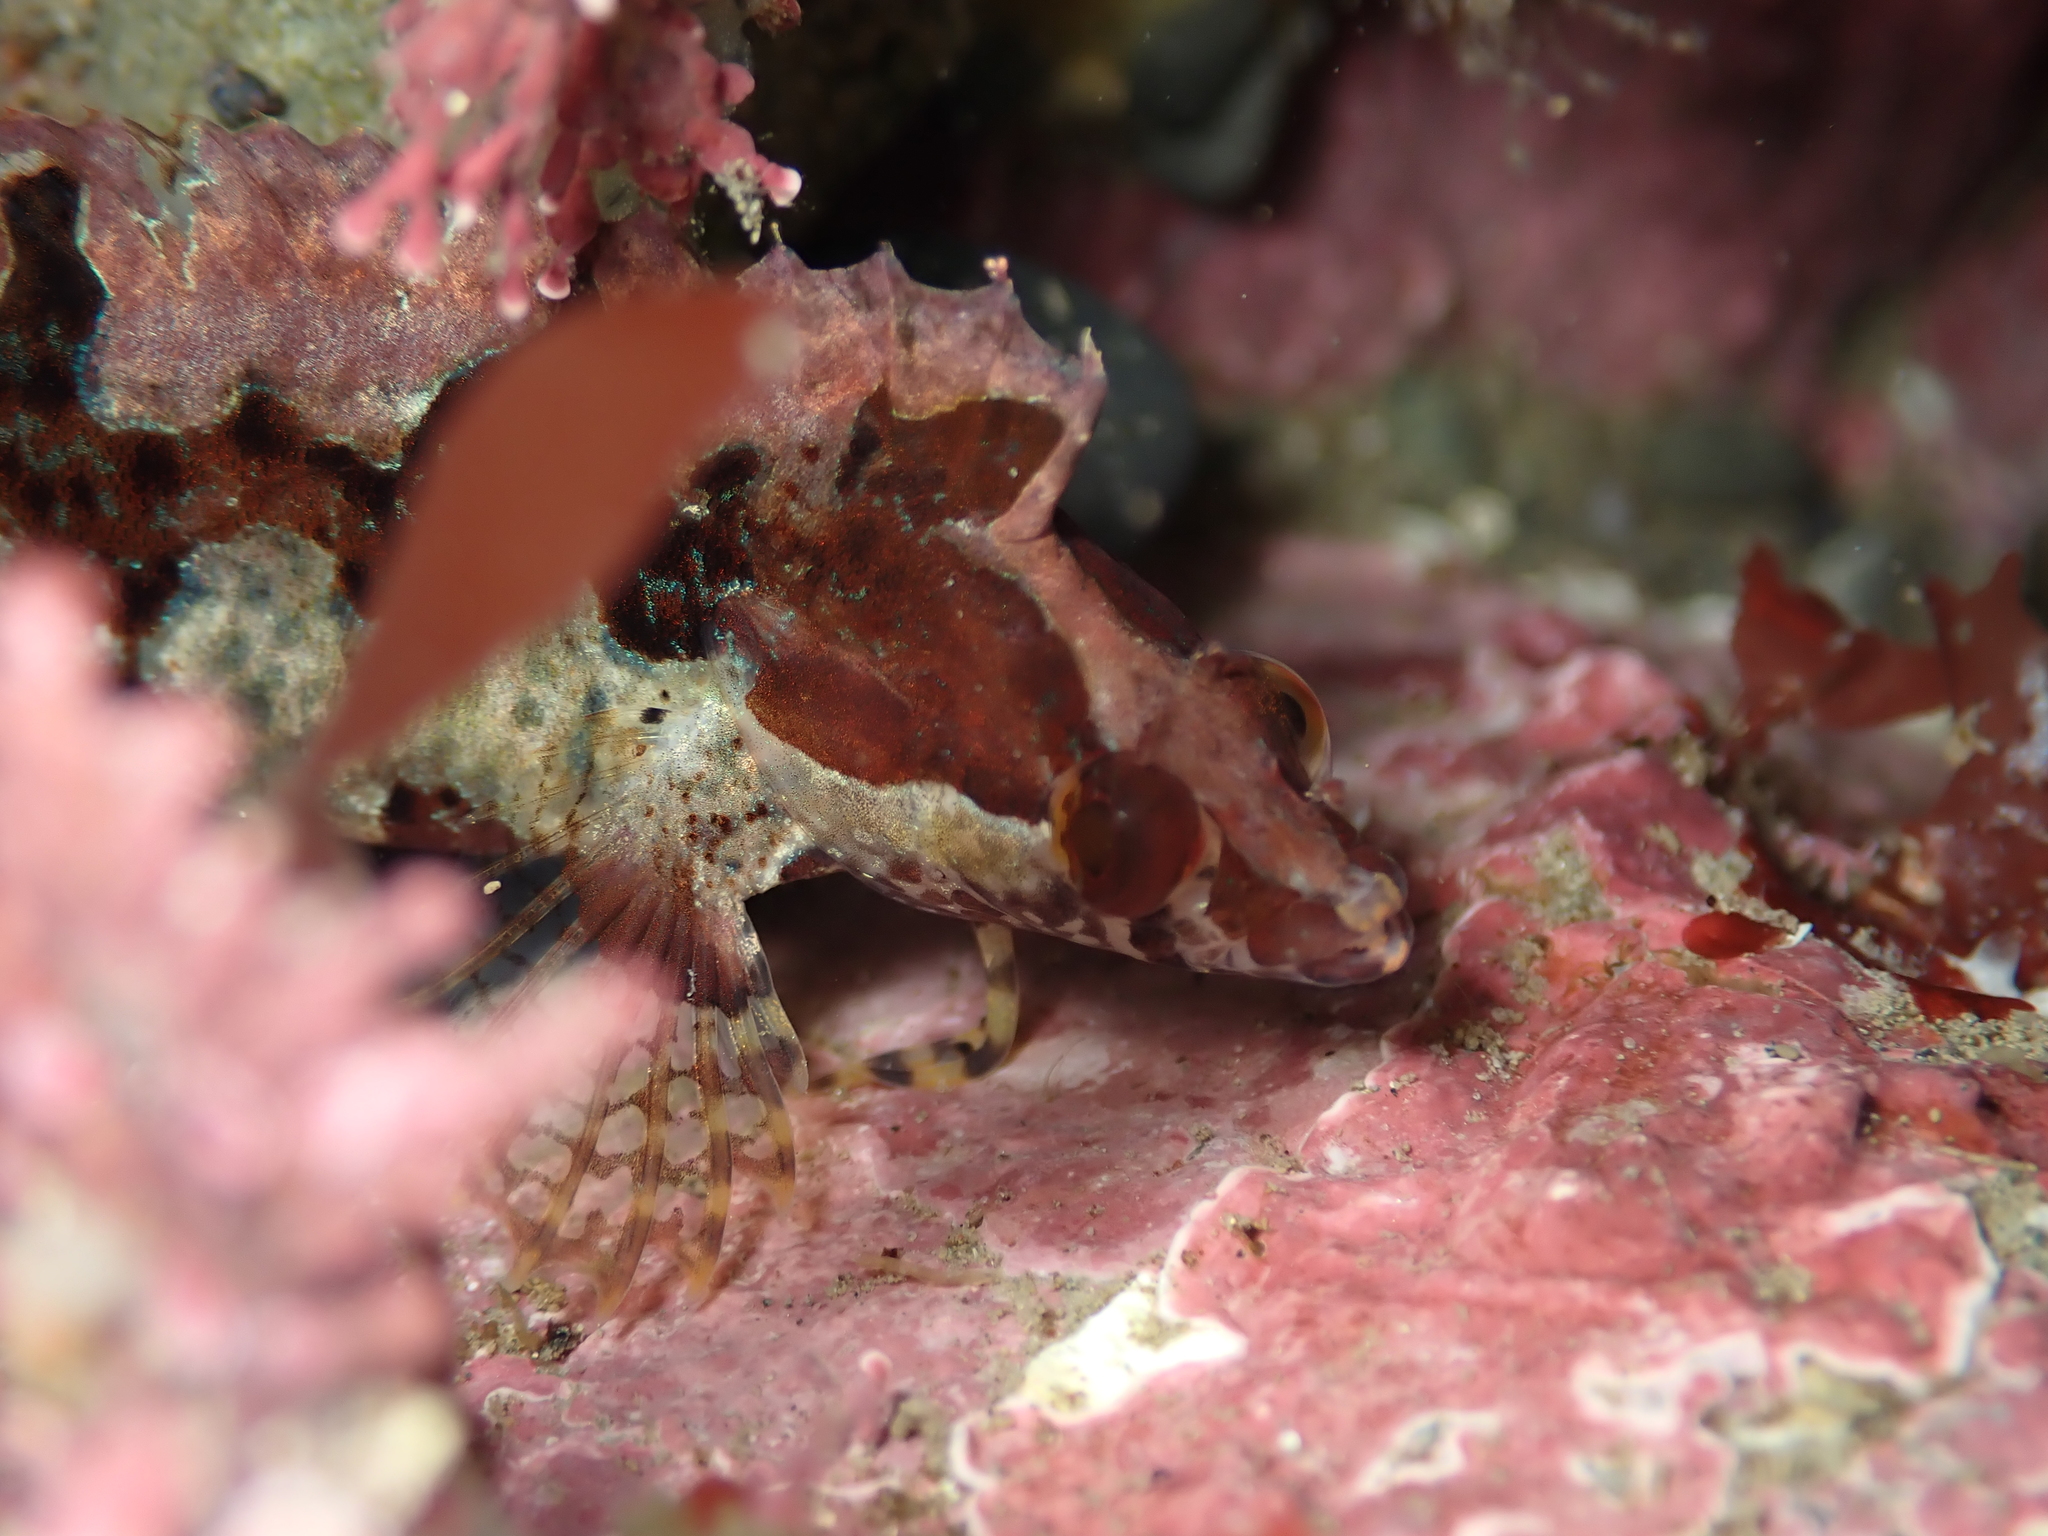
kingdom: Animalia
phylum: Chordata
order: Perciformes
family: Clinidae
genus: Ericentrus
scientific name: Ericentrus rubrus
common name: Orange clinid
